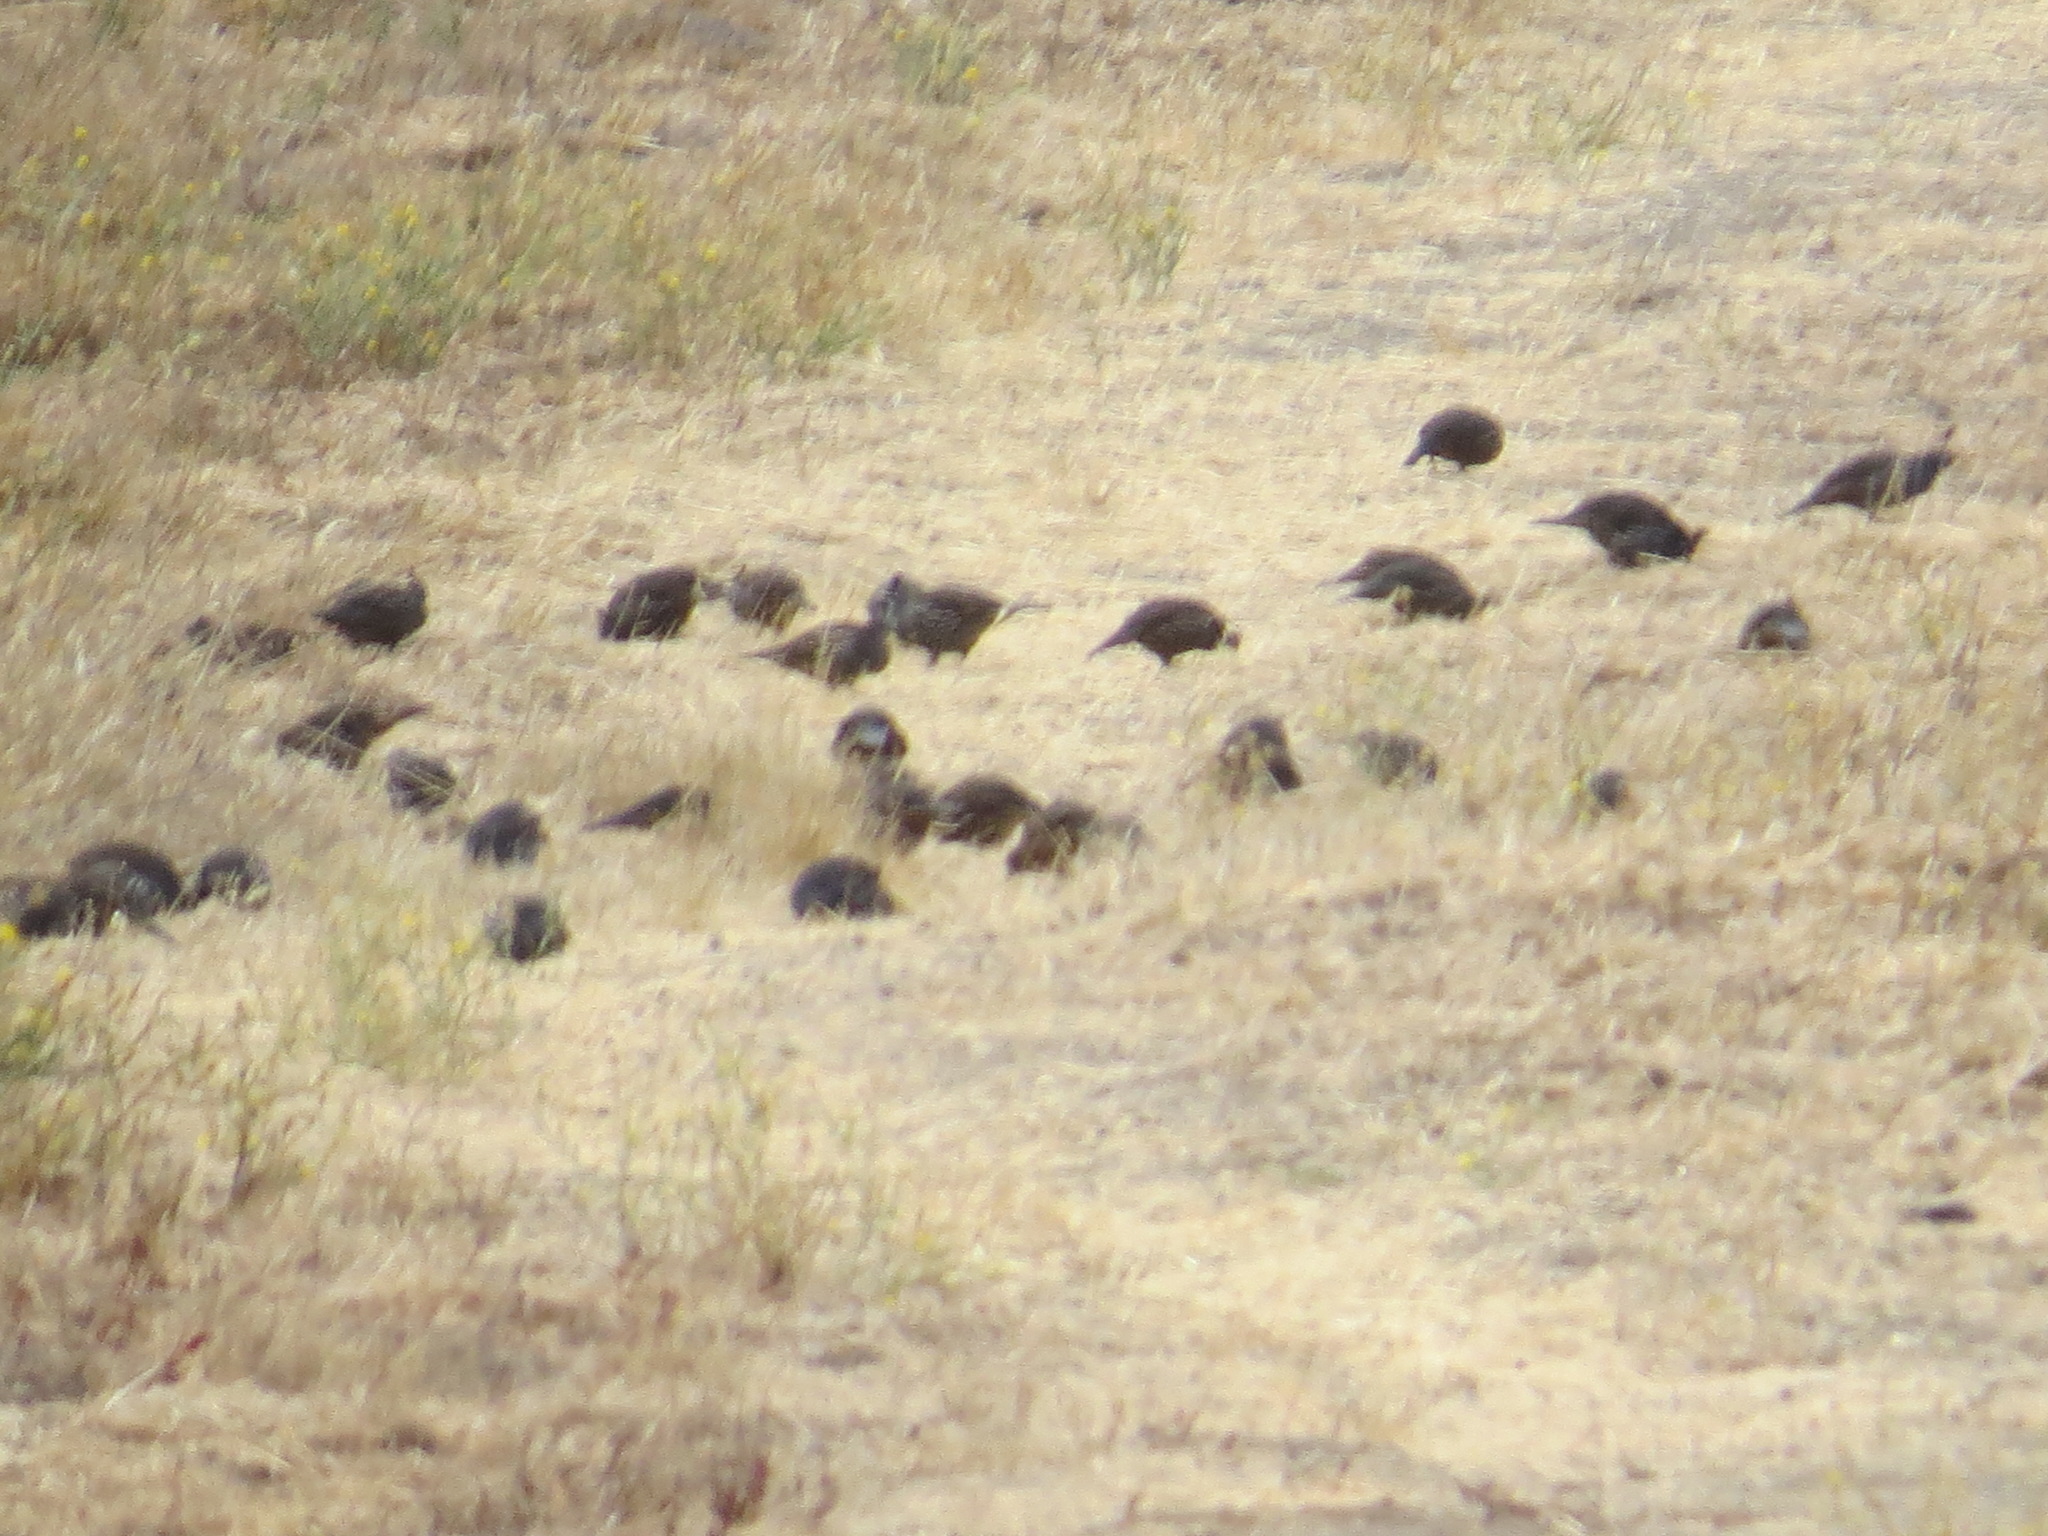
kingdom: Animalia
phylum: Chordata
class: Aves
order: Galliformes
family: Odontophoridae
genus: Callipepla
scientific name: Callipepla californica
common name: California quail
